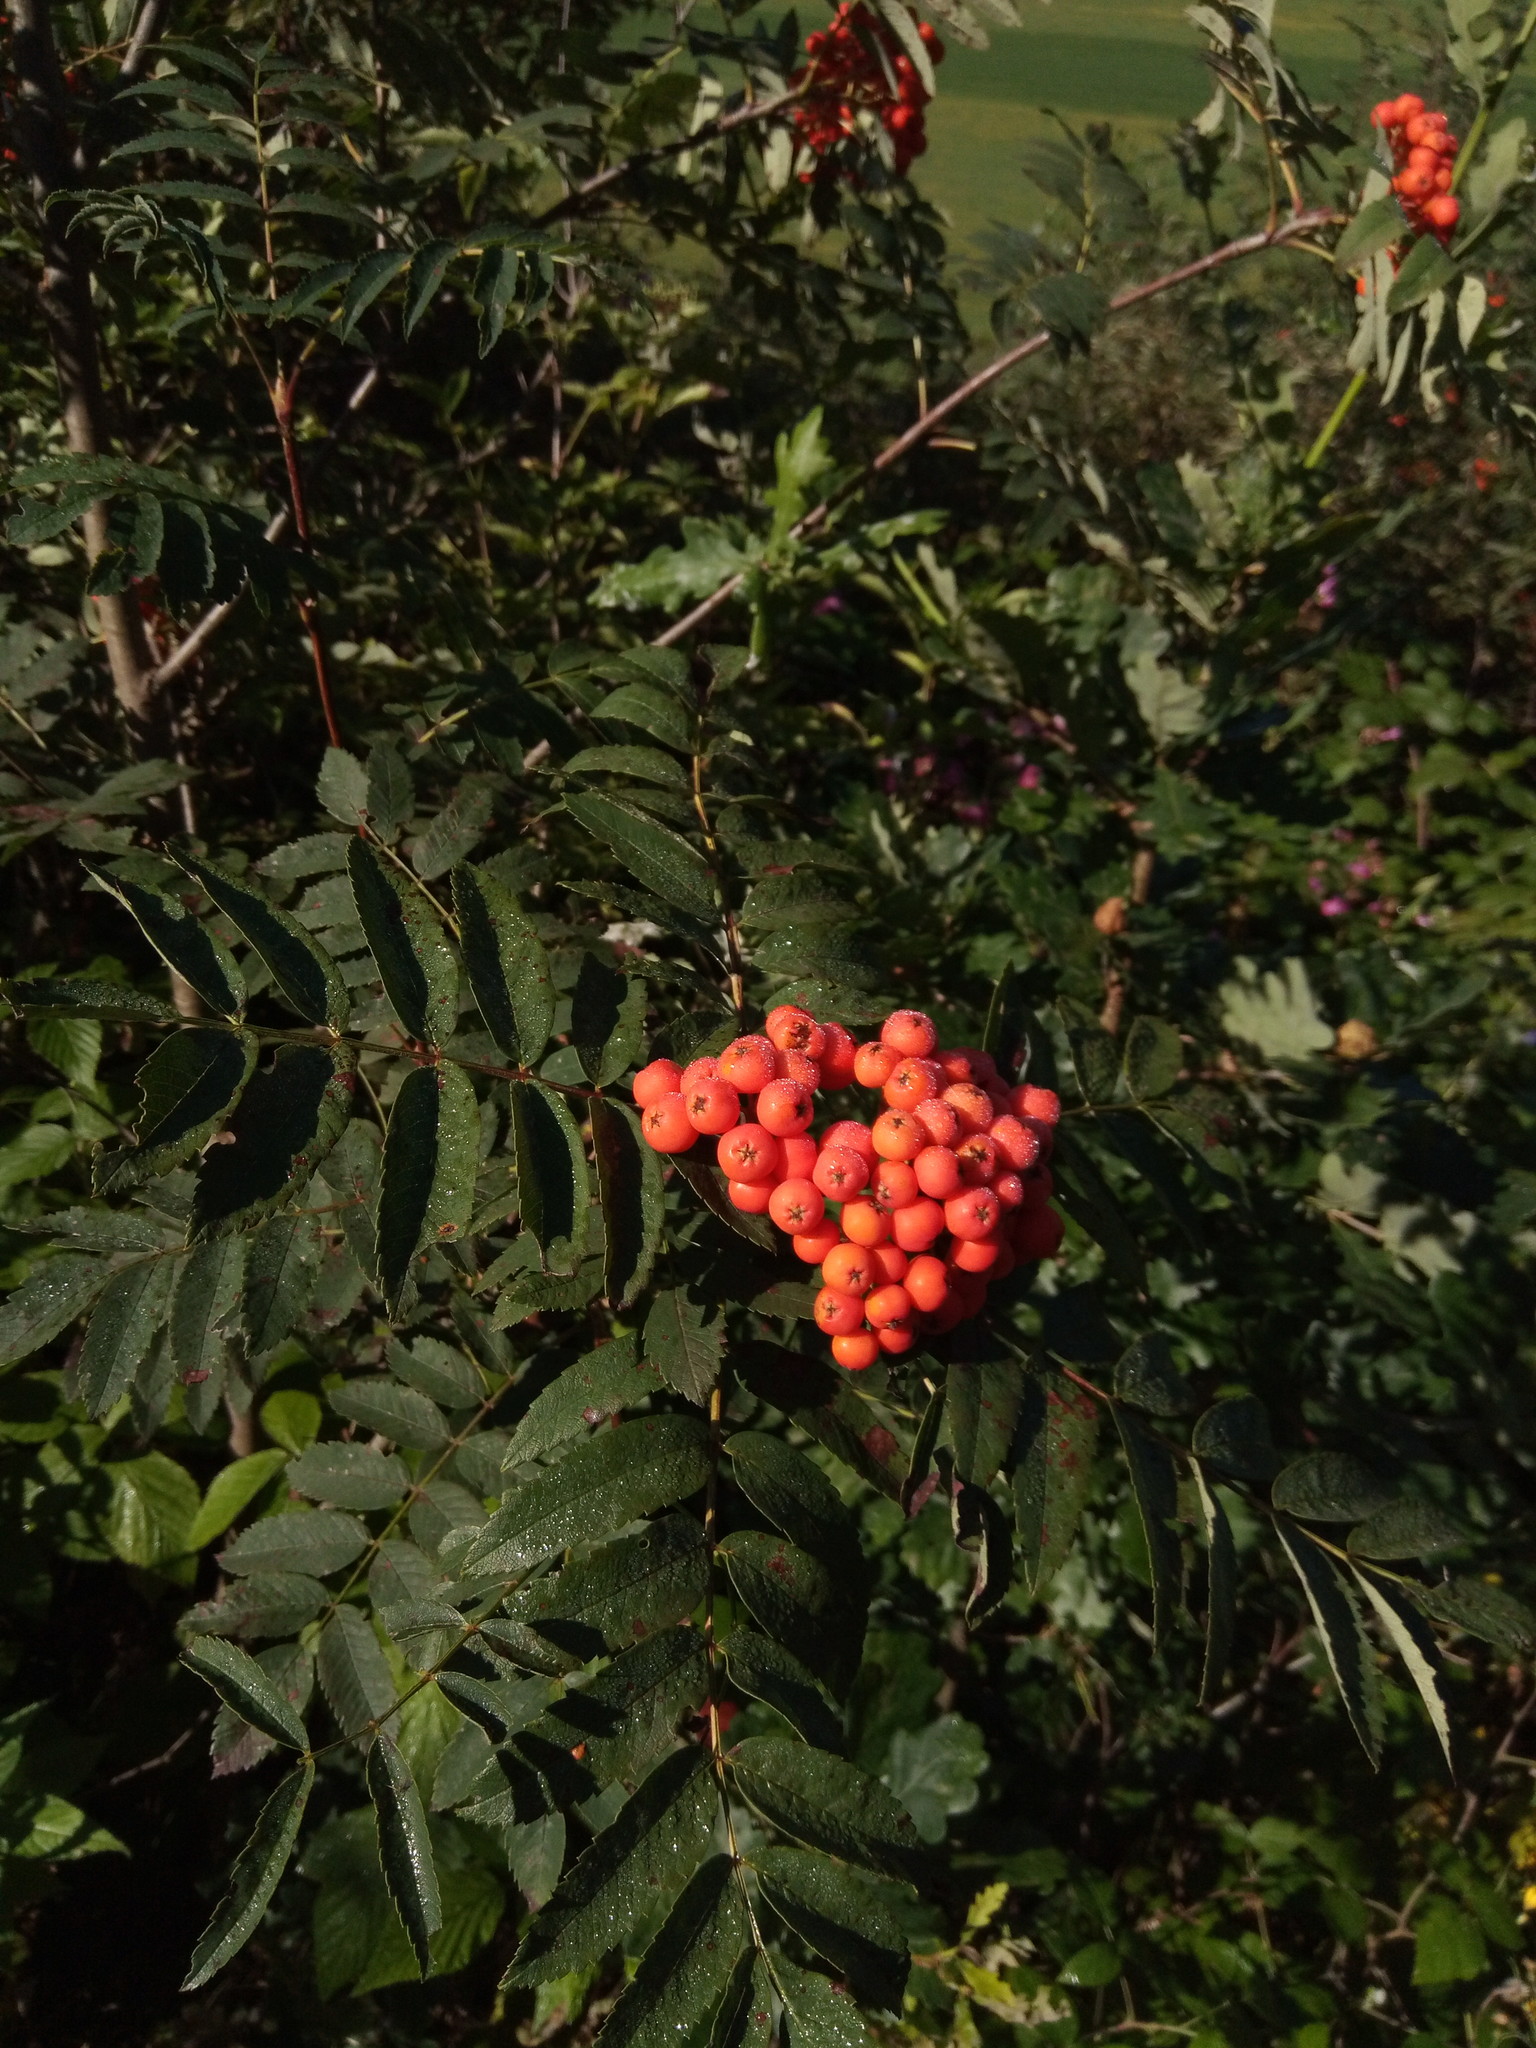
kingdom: Plantae
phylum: Tracheophyta
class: Magnoliopsida
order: Rosales
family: Rosaceae
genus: Sorbus
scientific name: Sorbus aucuparia
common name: Rowan
